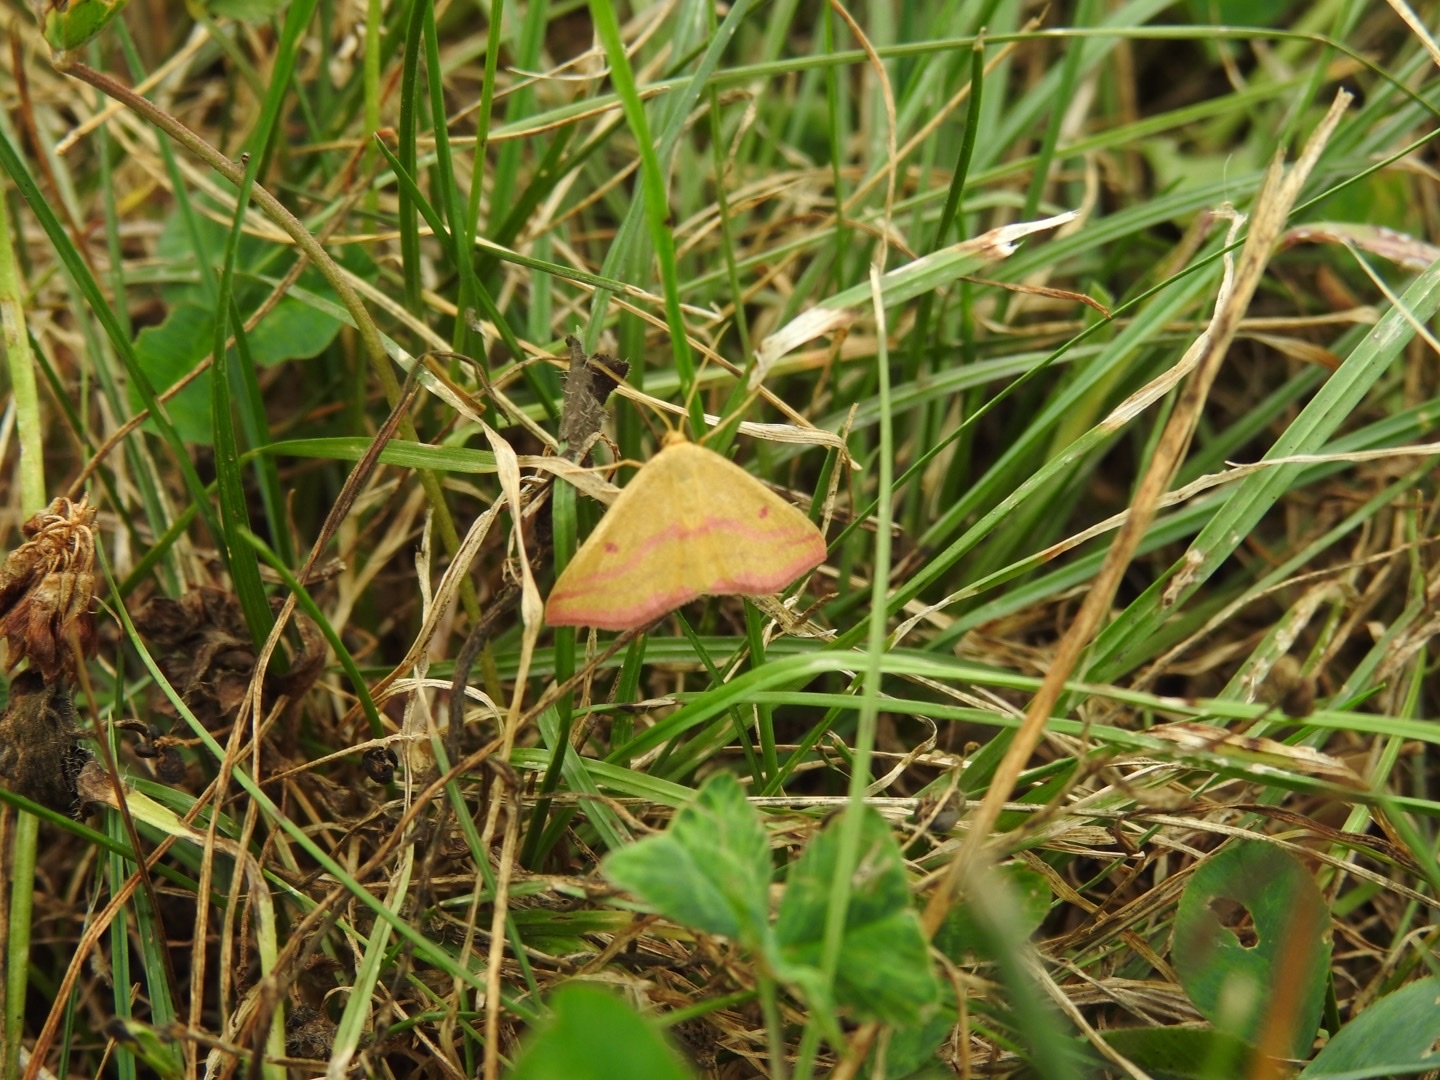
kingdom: Animalia
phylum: Arthropoda
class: Insecta
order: Lepidoptera
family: Geometridae
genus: Haematopis
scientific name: Haematopis grataria
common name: Chickweed geometer
